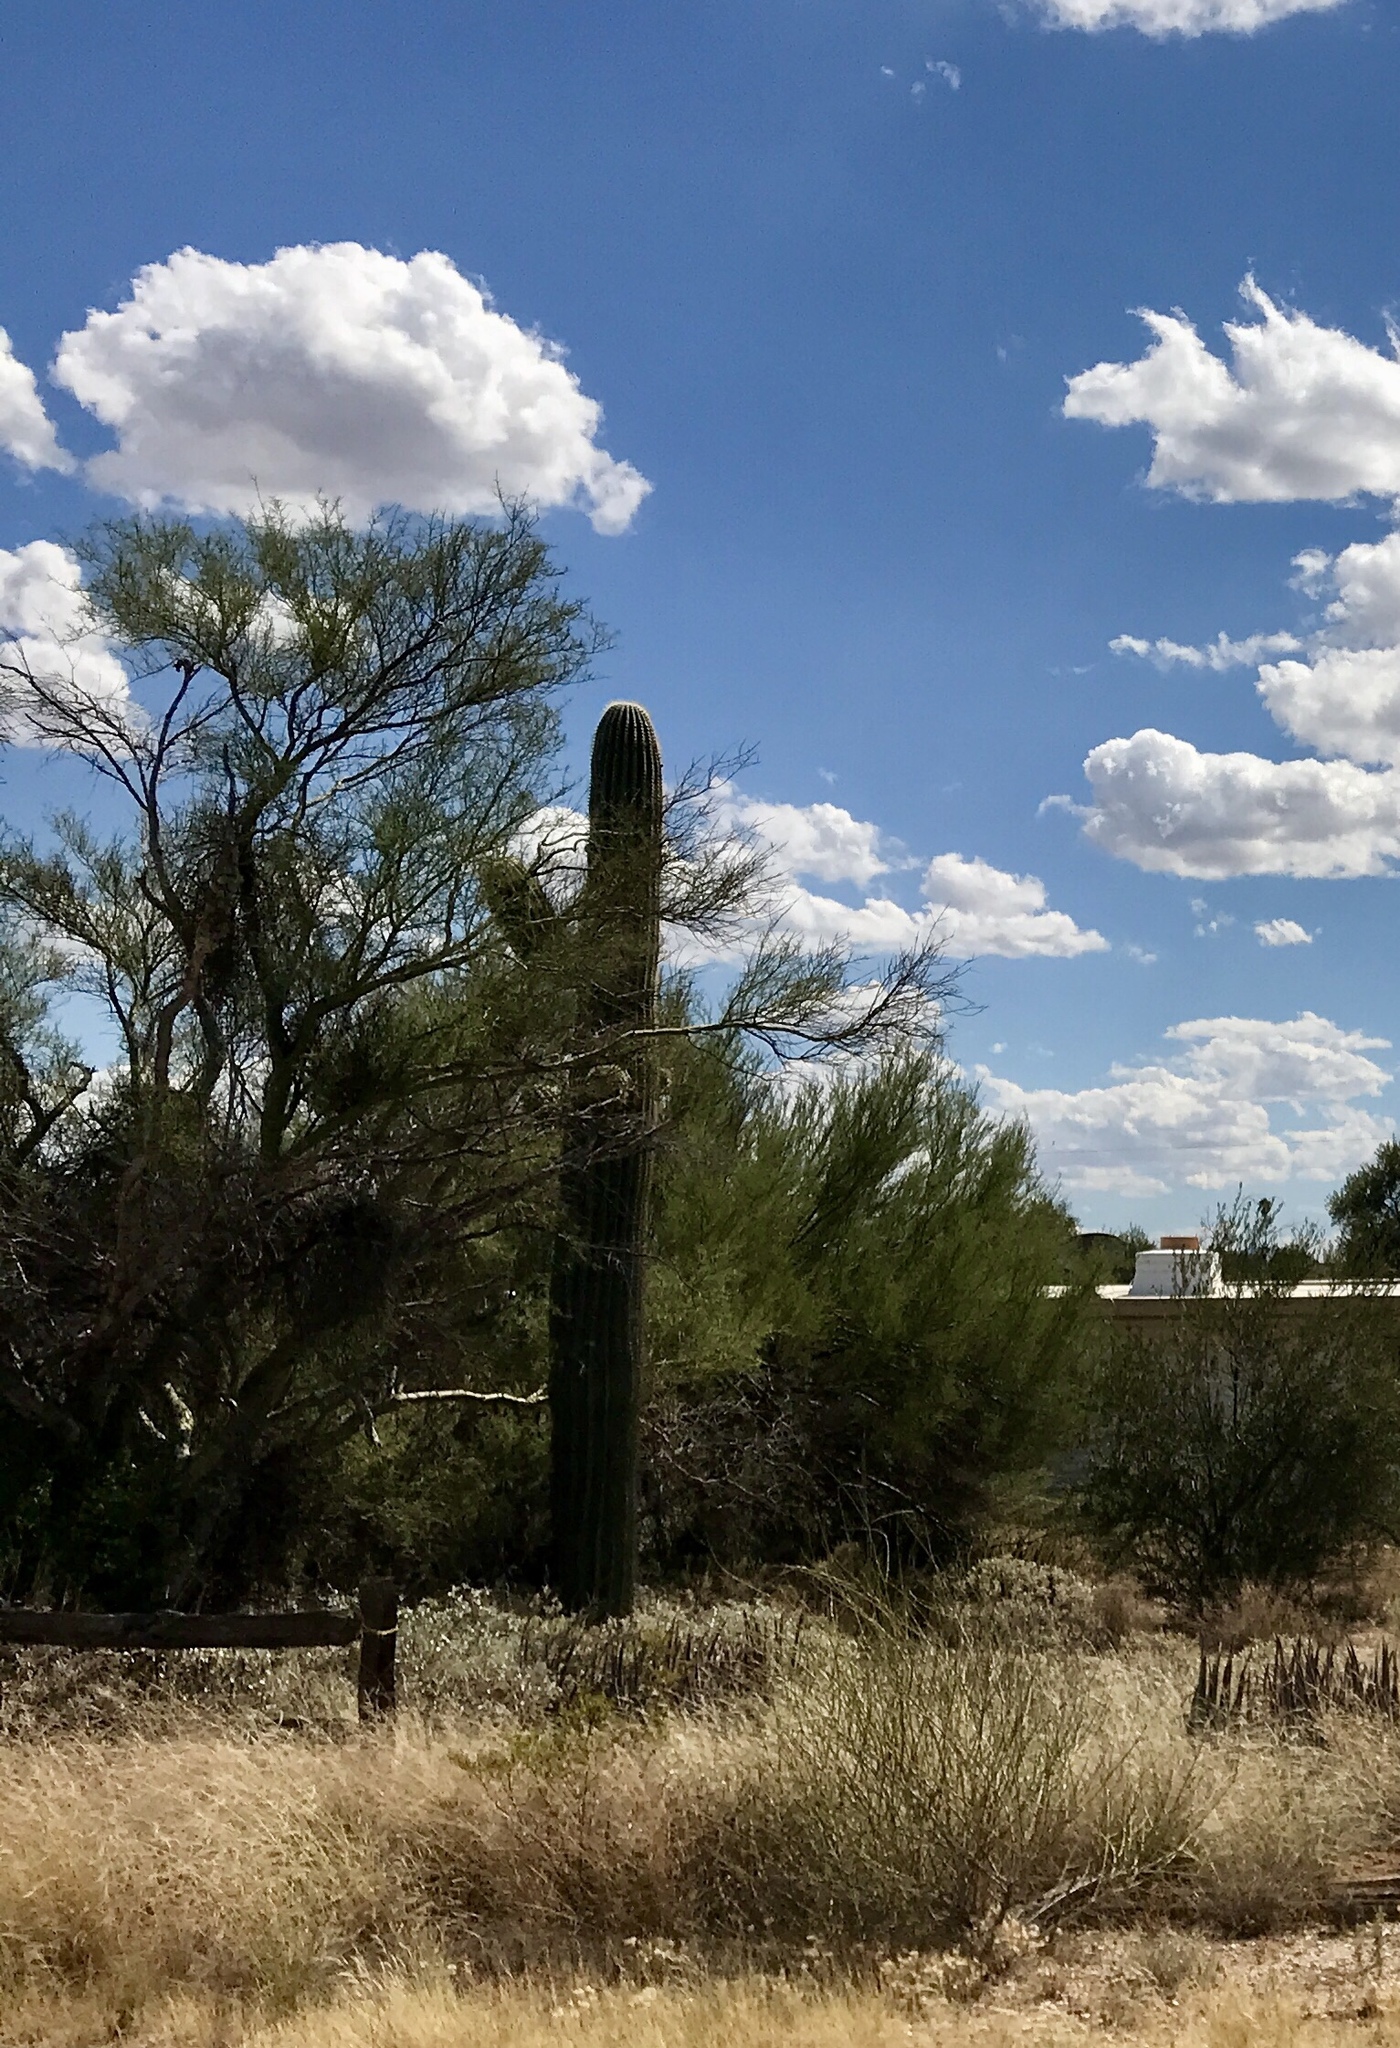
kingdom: Plantae
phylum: Tracheophyta
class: Magnoliopsida
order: Caryophyllales
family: Cactaceae
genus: Carnegiea
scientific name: Carnegiea gigantea
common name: Saguaro
